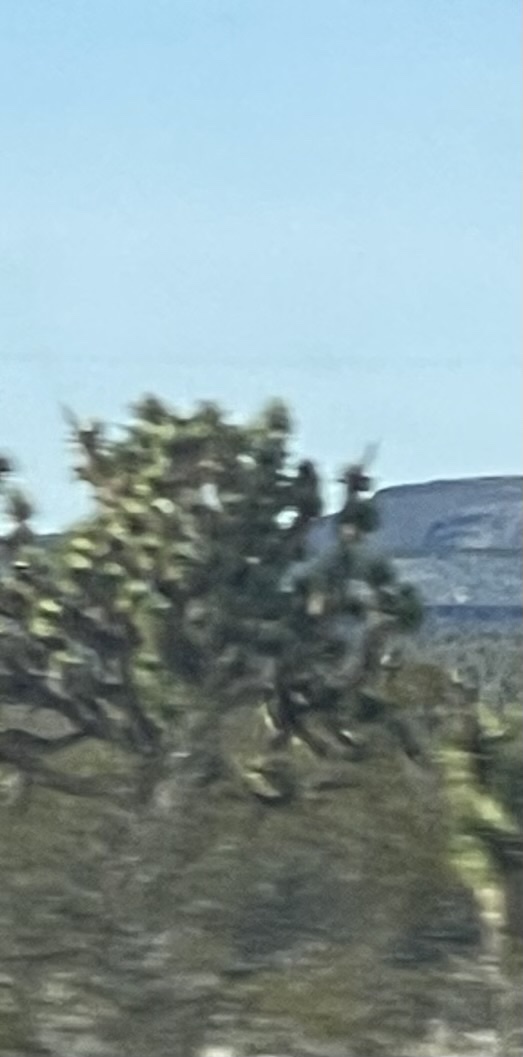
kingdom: Plantae
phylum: Tracheophyta
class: Liliopsida
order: Asparagales
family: Asparagaceae
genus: Yucca
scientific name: Yucca brevifolia
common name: Joshua tree
